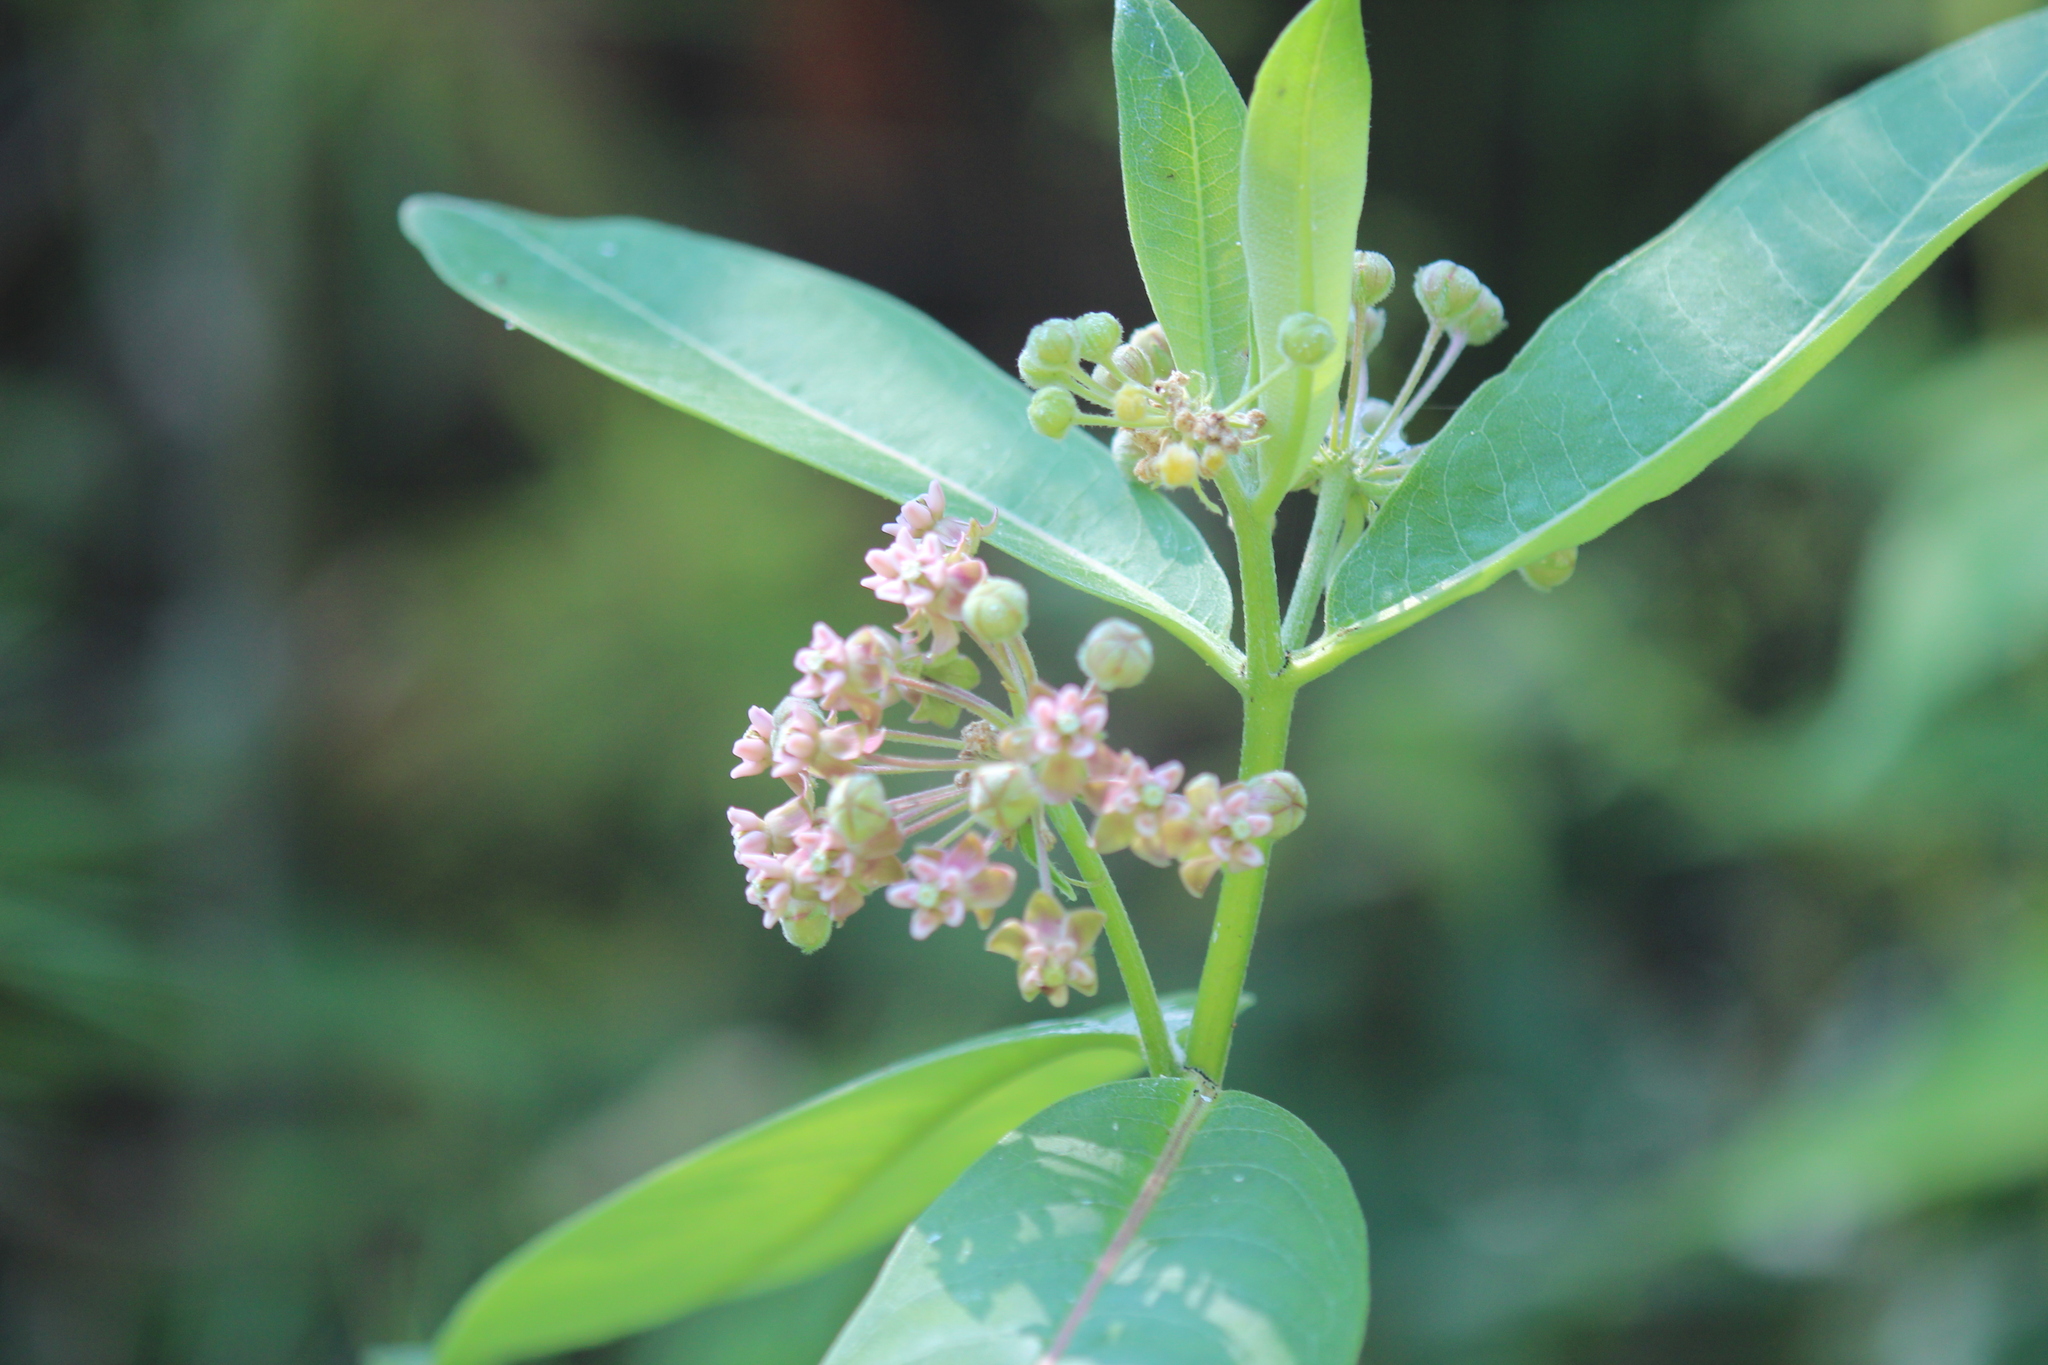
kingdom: Plantae
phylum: Tracheophyta
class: Magnoliopsida
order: Gentianales
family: Apocynaceae
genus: Asclepias
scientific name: Asclepias syriaca
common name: Common milkweed
